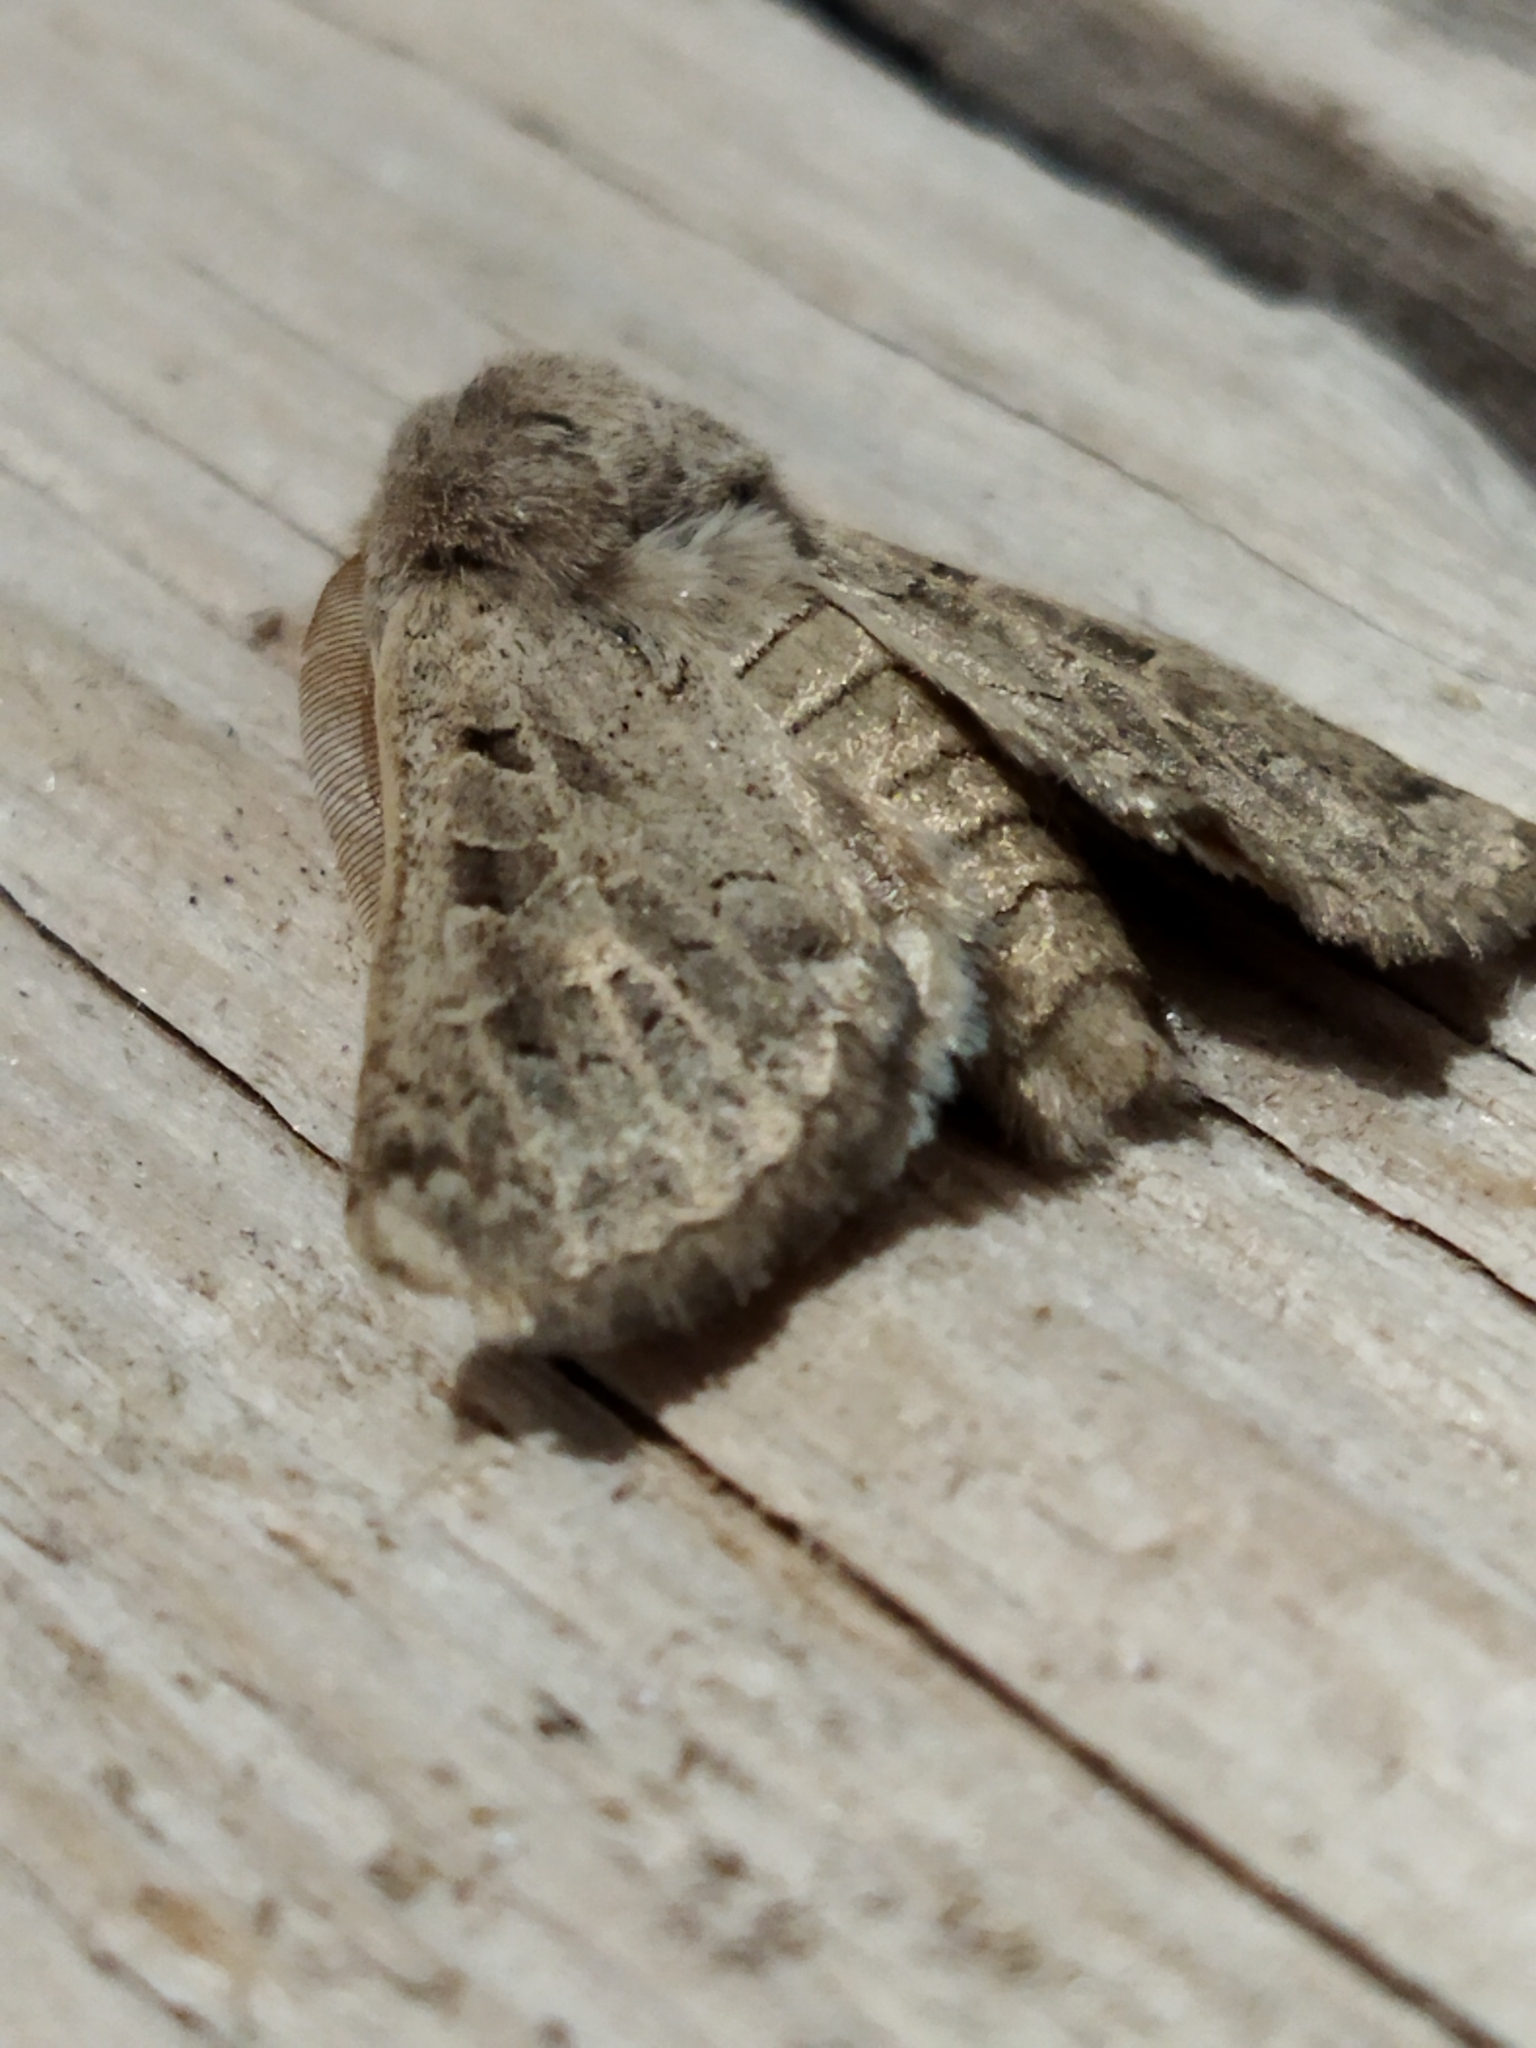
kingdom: Animalia
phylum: Arthropoda
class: Insecta
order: Lepidoptera
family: Noctuidae
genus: Episema
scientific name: Episema lederi
